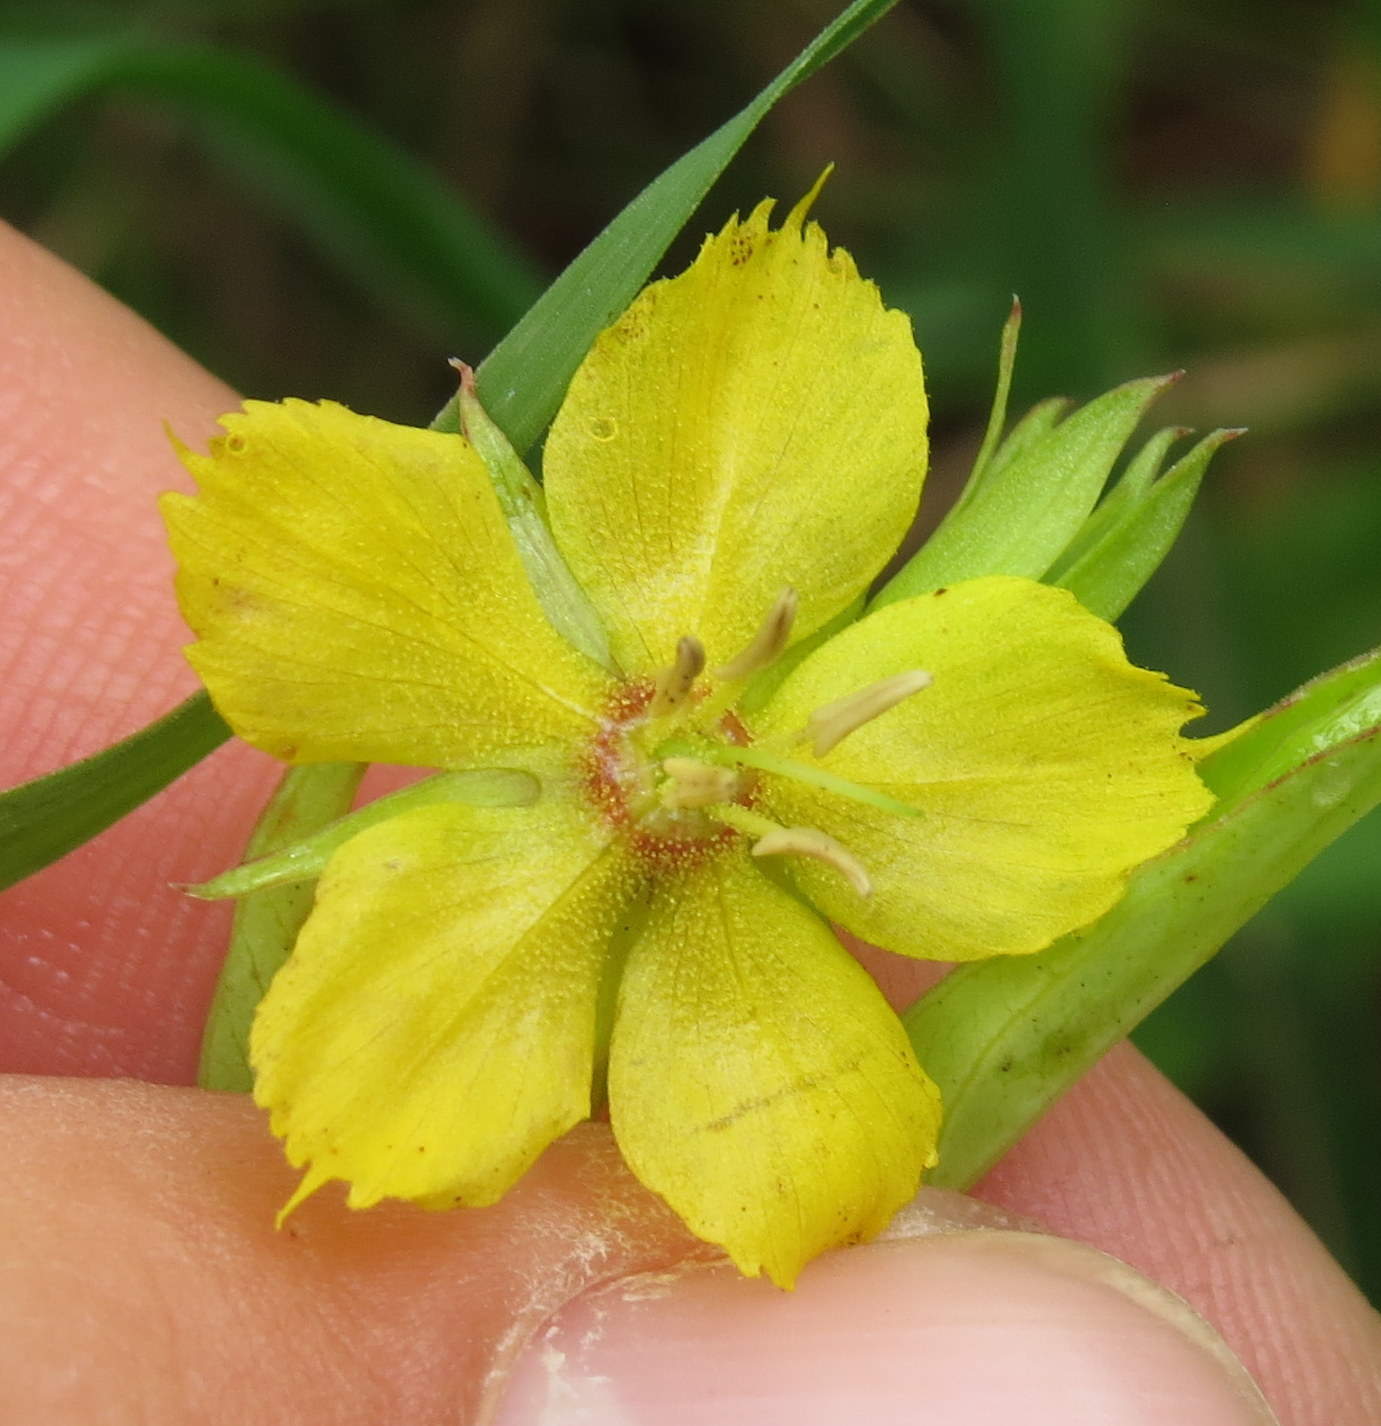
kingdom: Plantae
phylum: Tracheophyta
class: Magnoliopsida
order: Ericales
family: Primulaceae
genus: Lysimachia
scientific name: Lysimachia hybrida
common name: Lowland loosestrife
